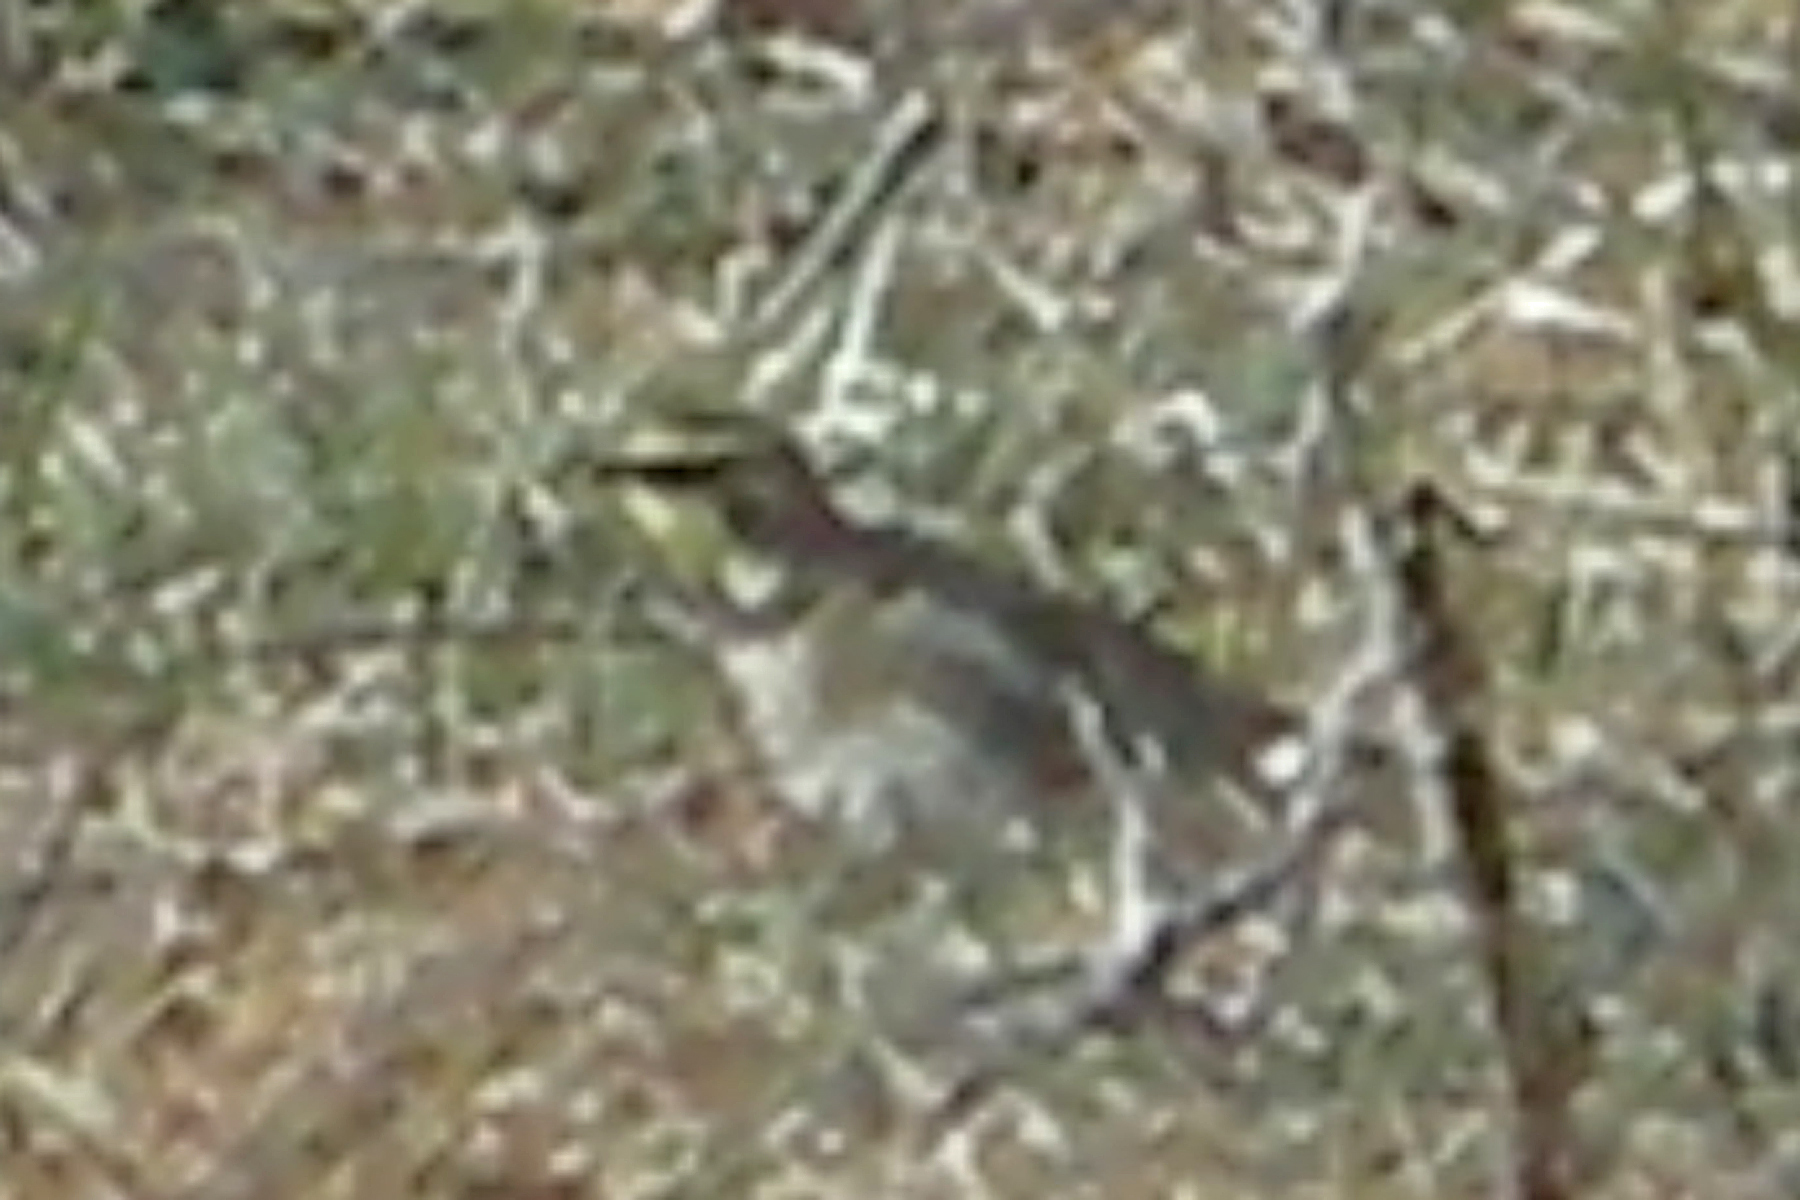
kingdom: Animalia
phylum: Chordata
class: Aves
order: Passeriformes
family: Alaudidae
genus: Eremophila
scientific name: Eremophila alpestris
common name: Horned lark
